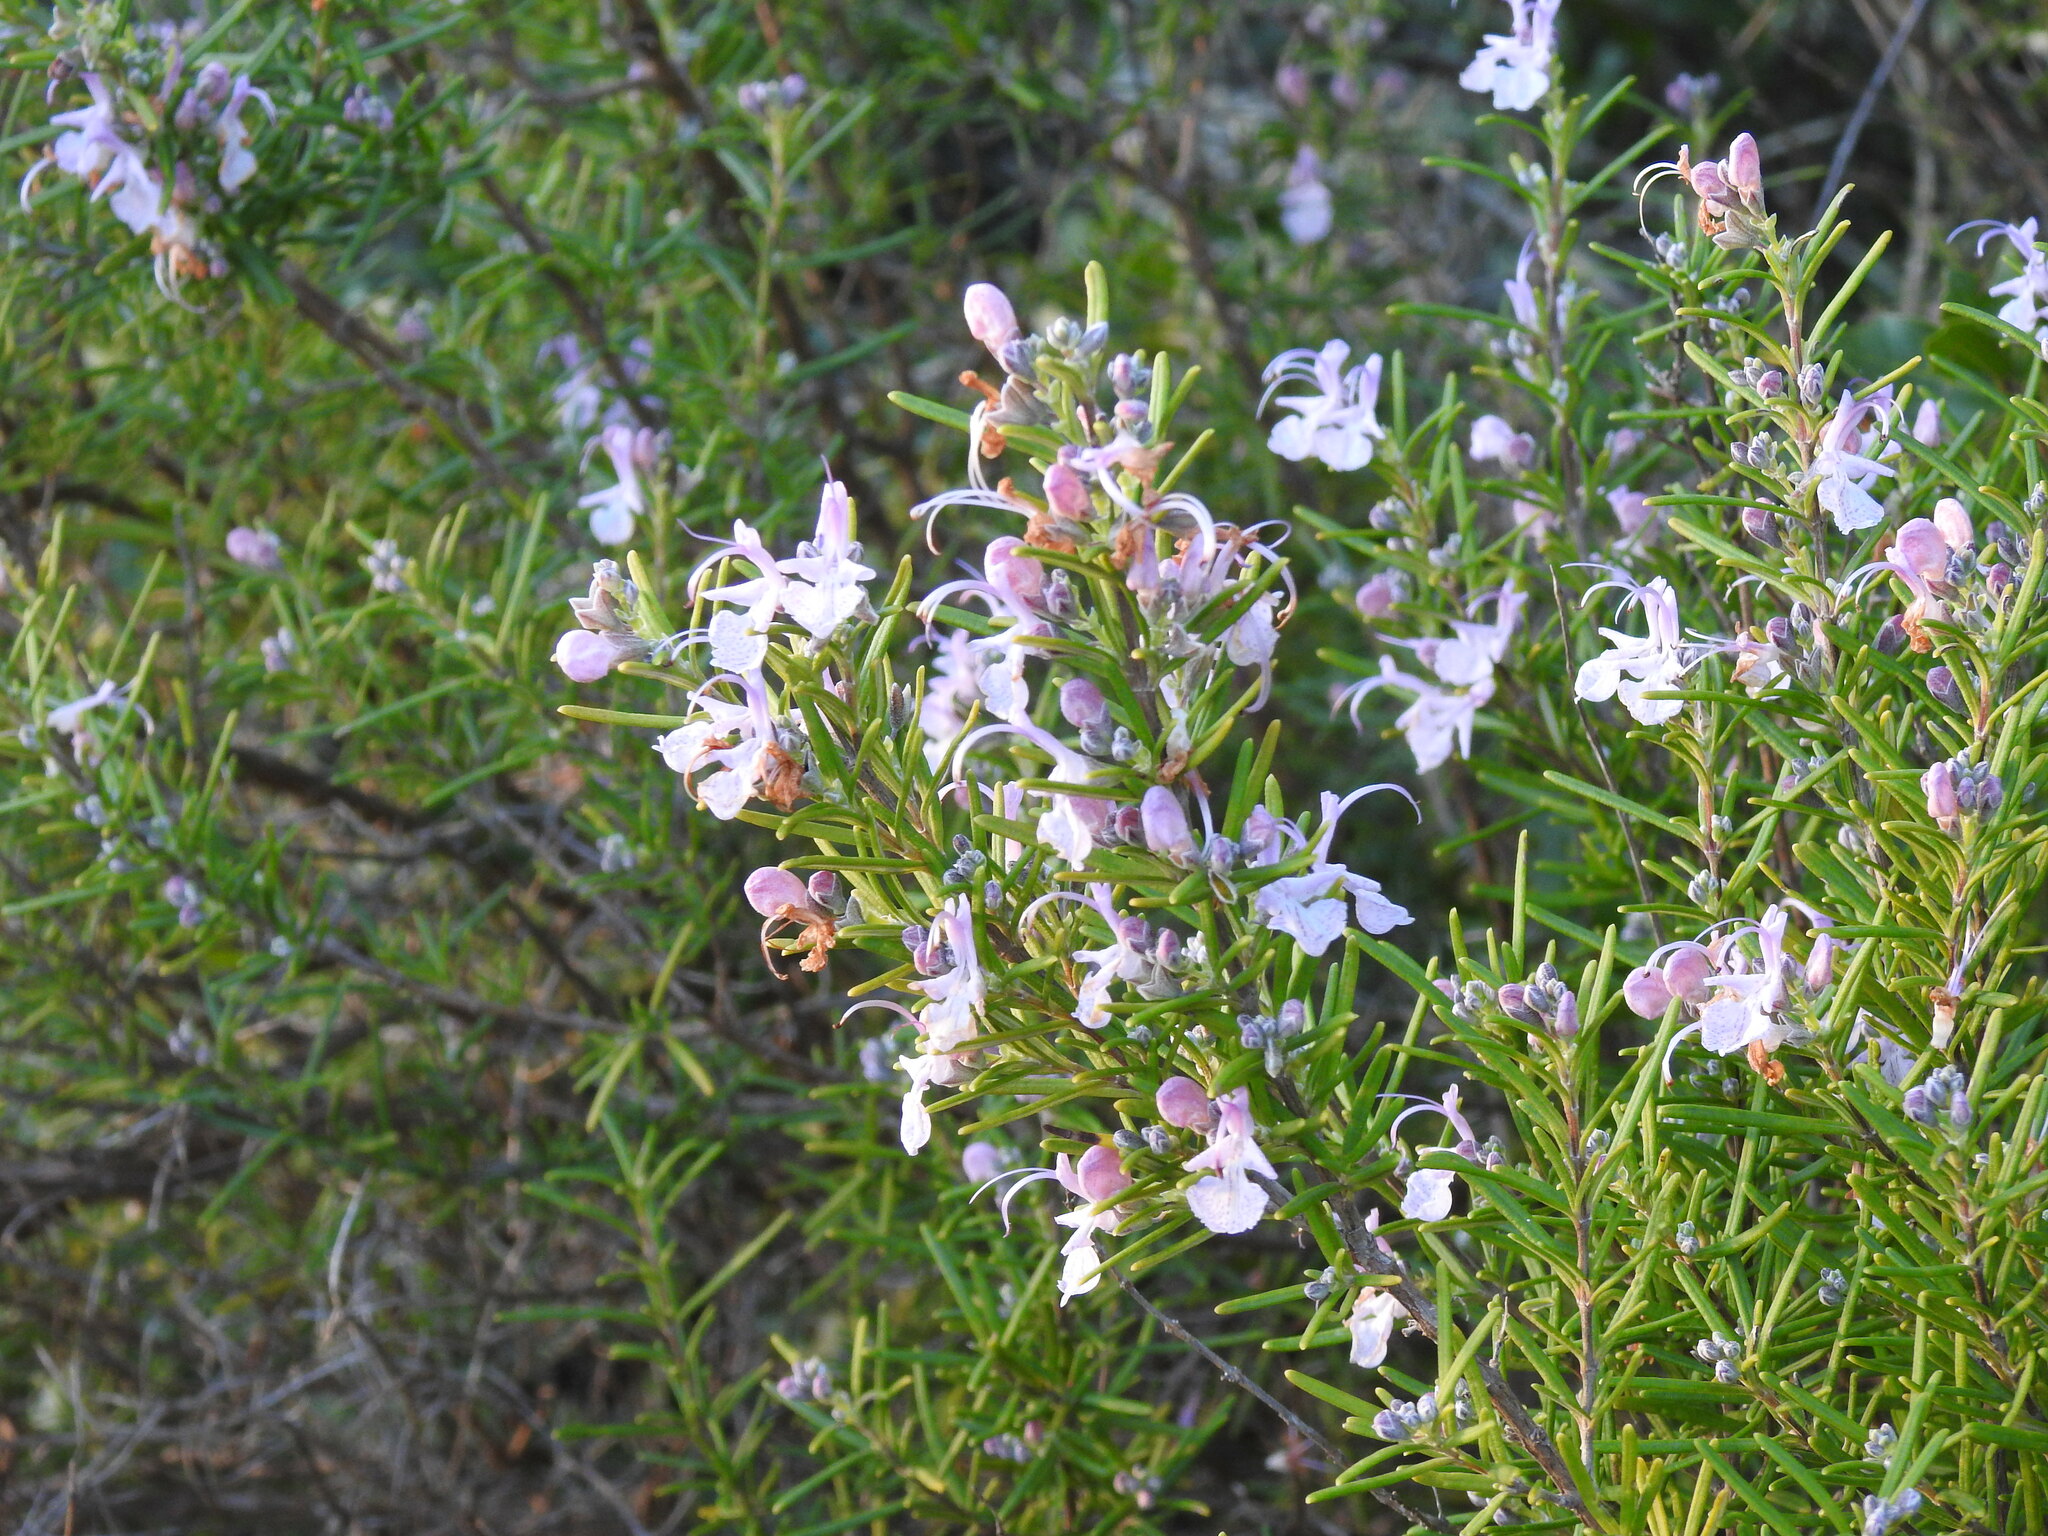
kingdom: Plantae
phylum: Tracheophyta
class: Magnoliopsida
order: Lamiales
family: Lamiaceae
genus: Salvia
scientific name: Salvia rosmarinus
